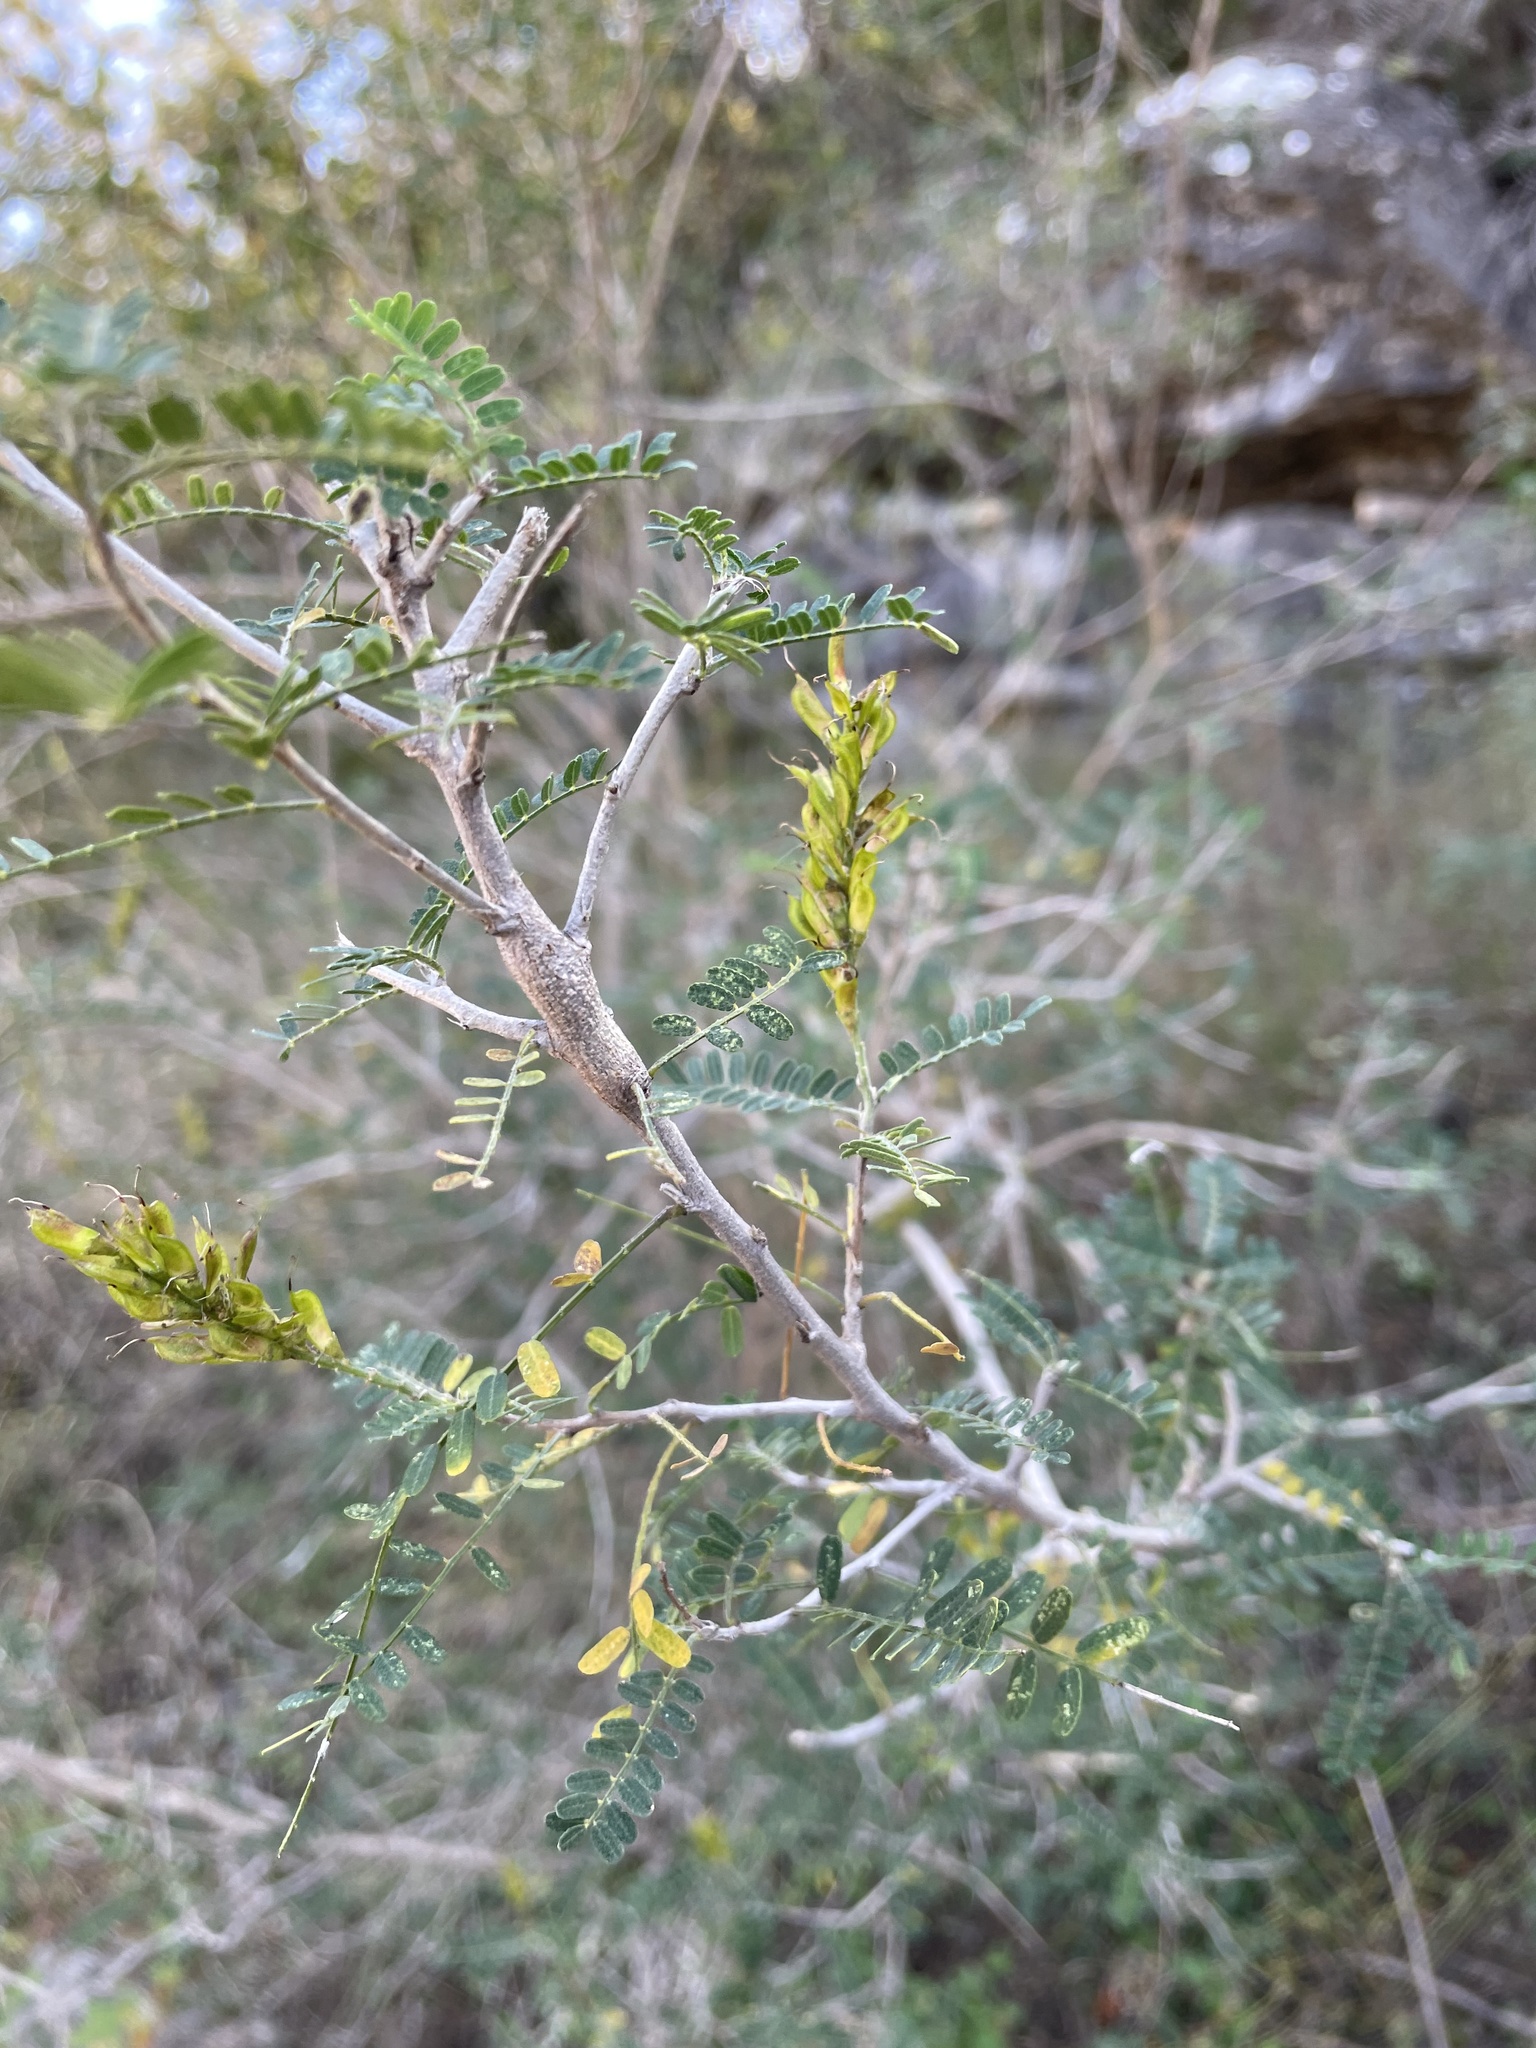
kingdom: Plantae
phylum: Tracheophyta
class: Magnoliopsida
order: Fabales
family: Fabaceae
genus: Eysenhardtia
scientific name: Eysenhardtia texana
